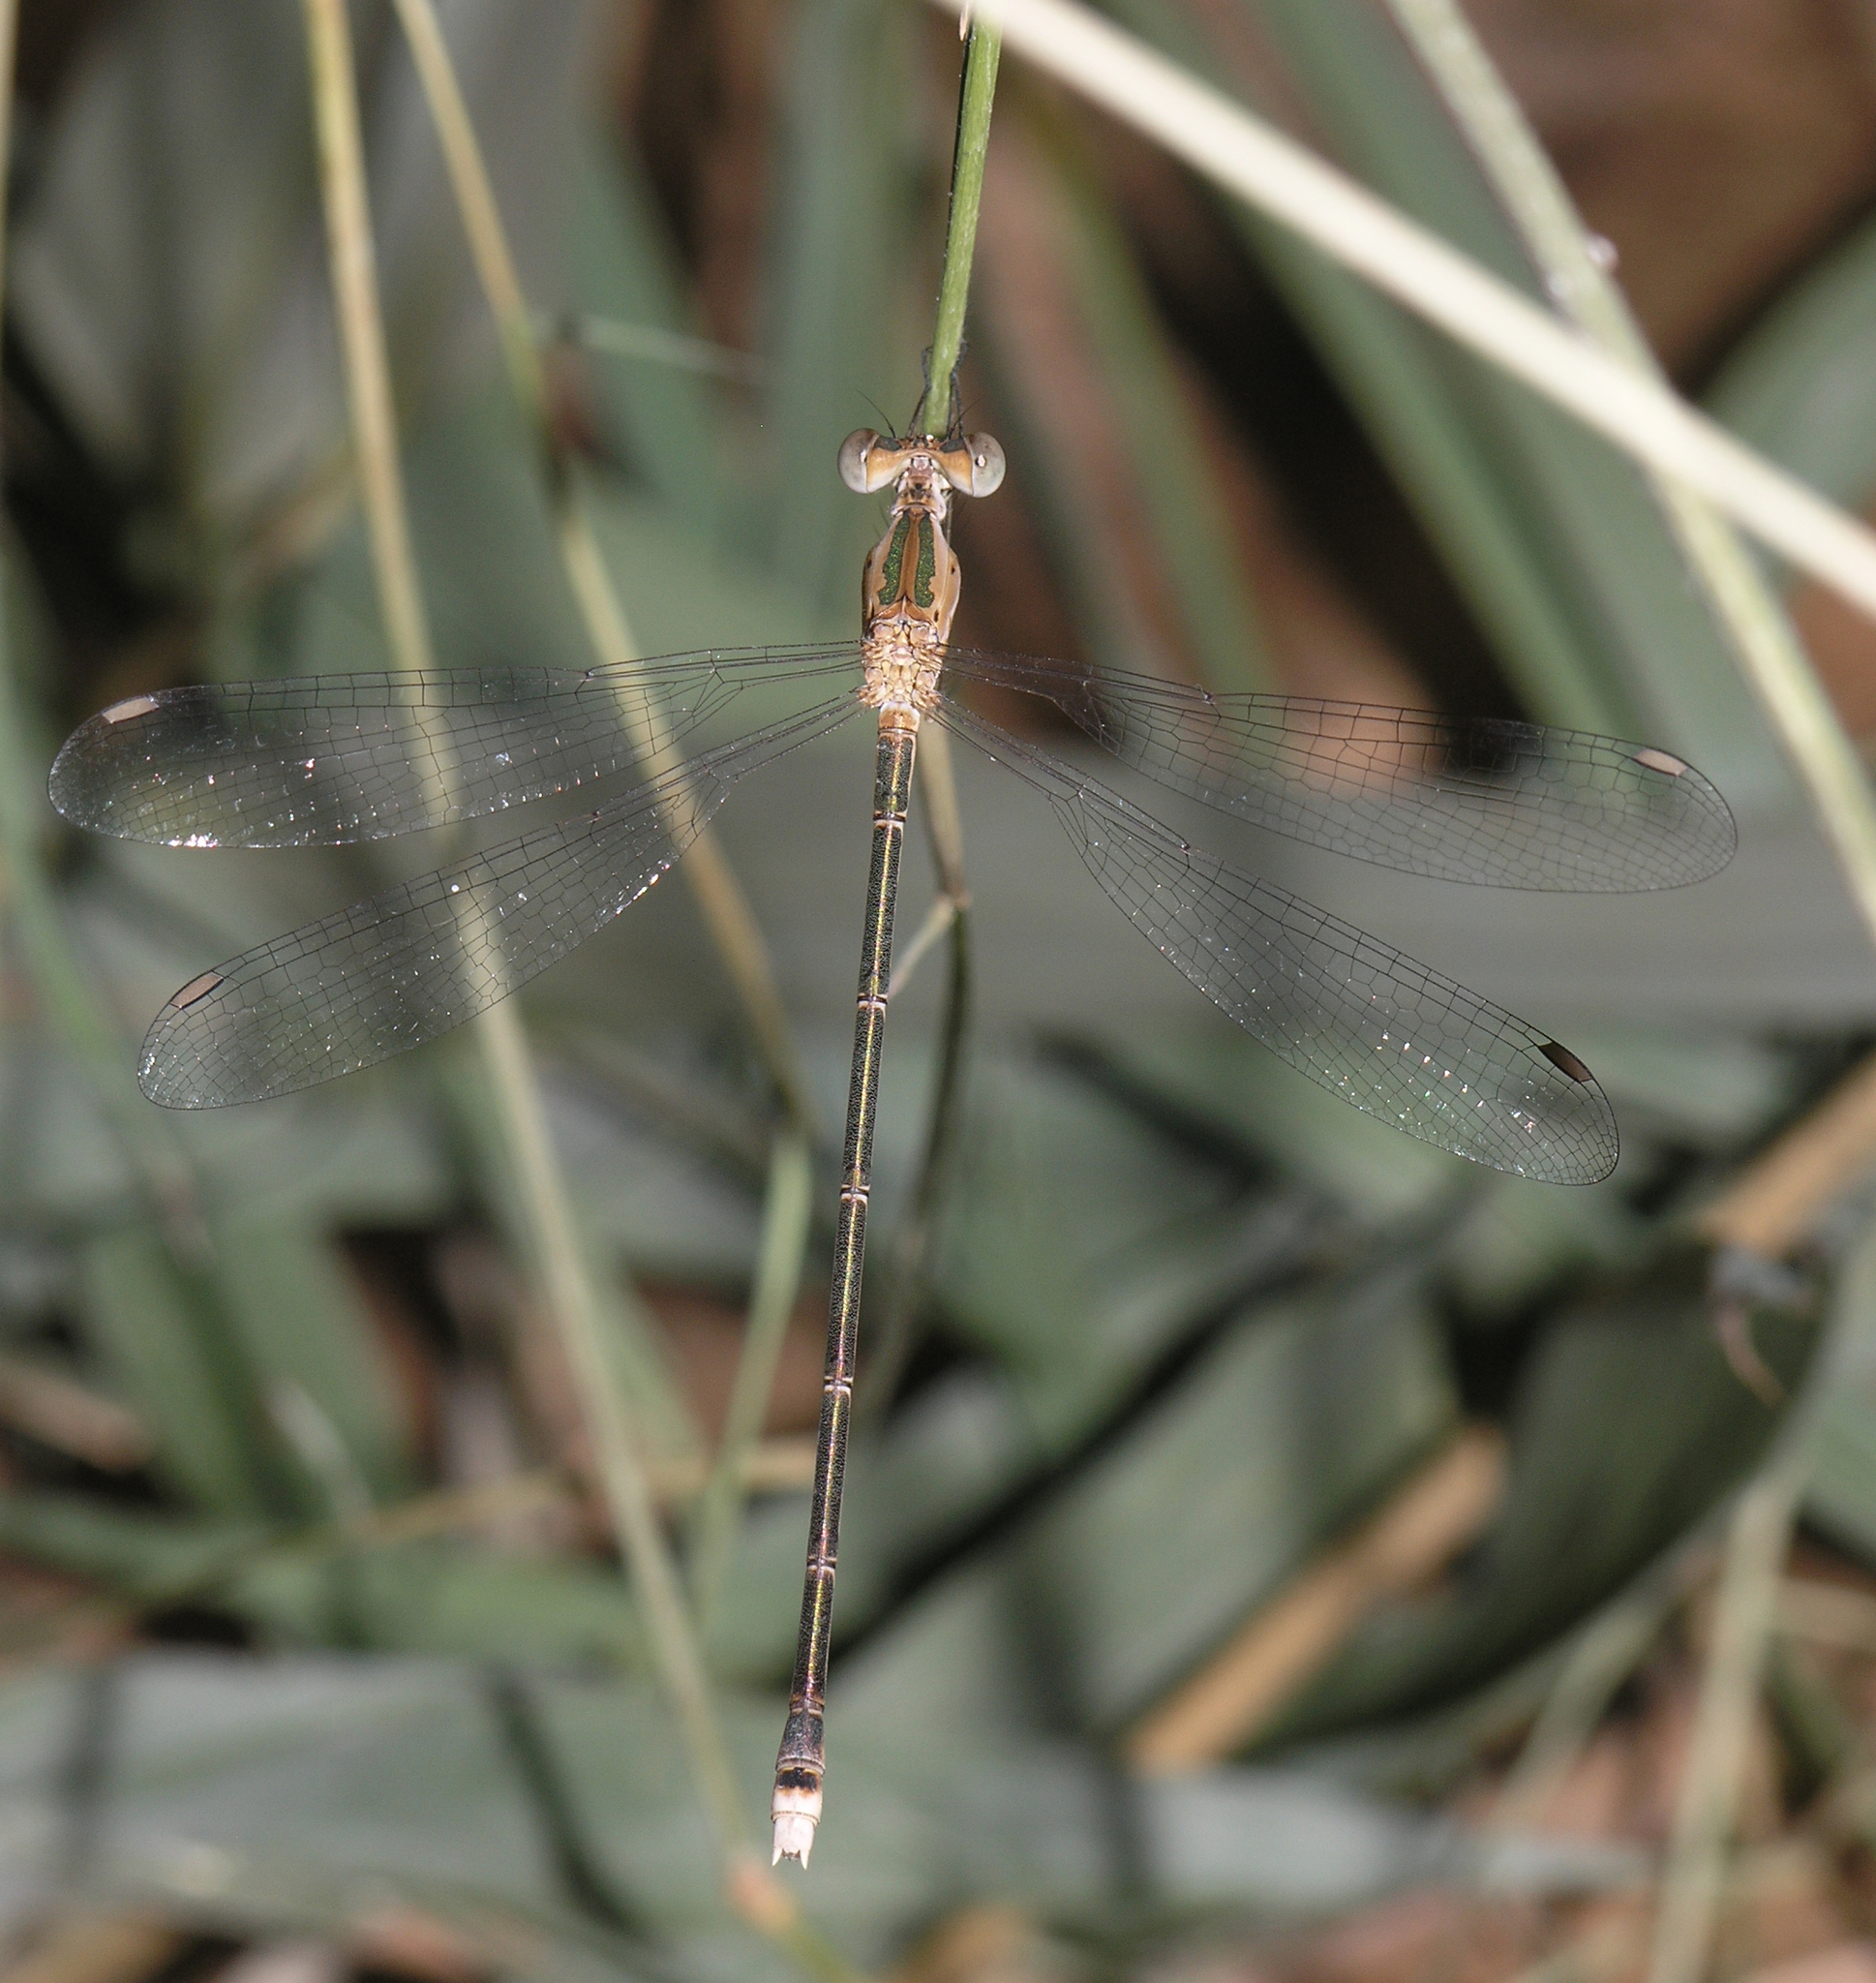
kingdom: Animalia
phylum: Arthropoda
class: Insecta
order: Odonata
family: Lestidae
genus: Lestes
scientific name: Lestes elatus
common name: Emerald spreadwing
